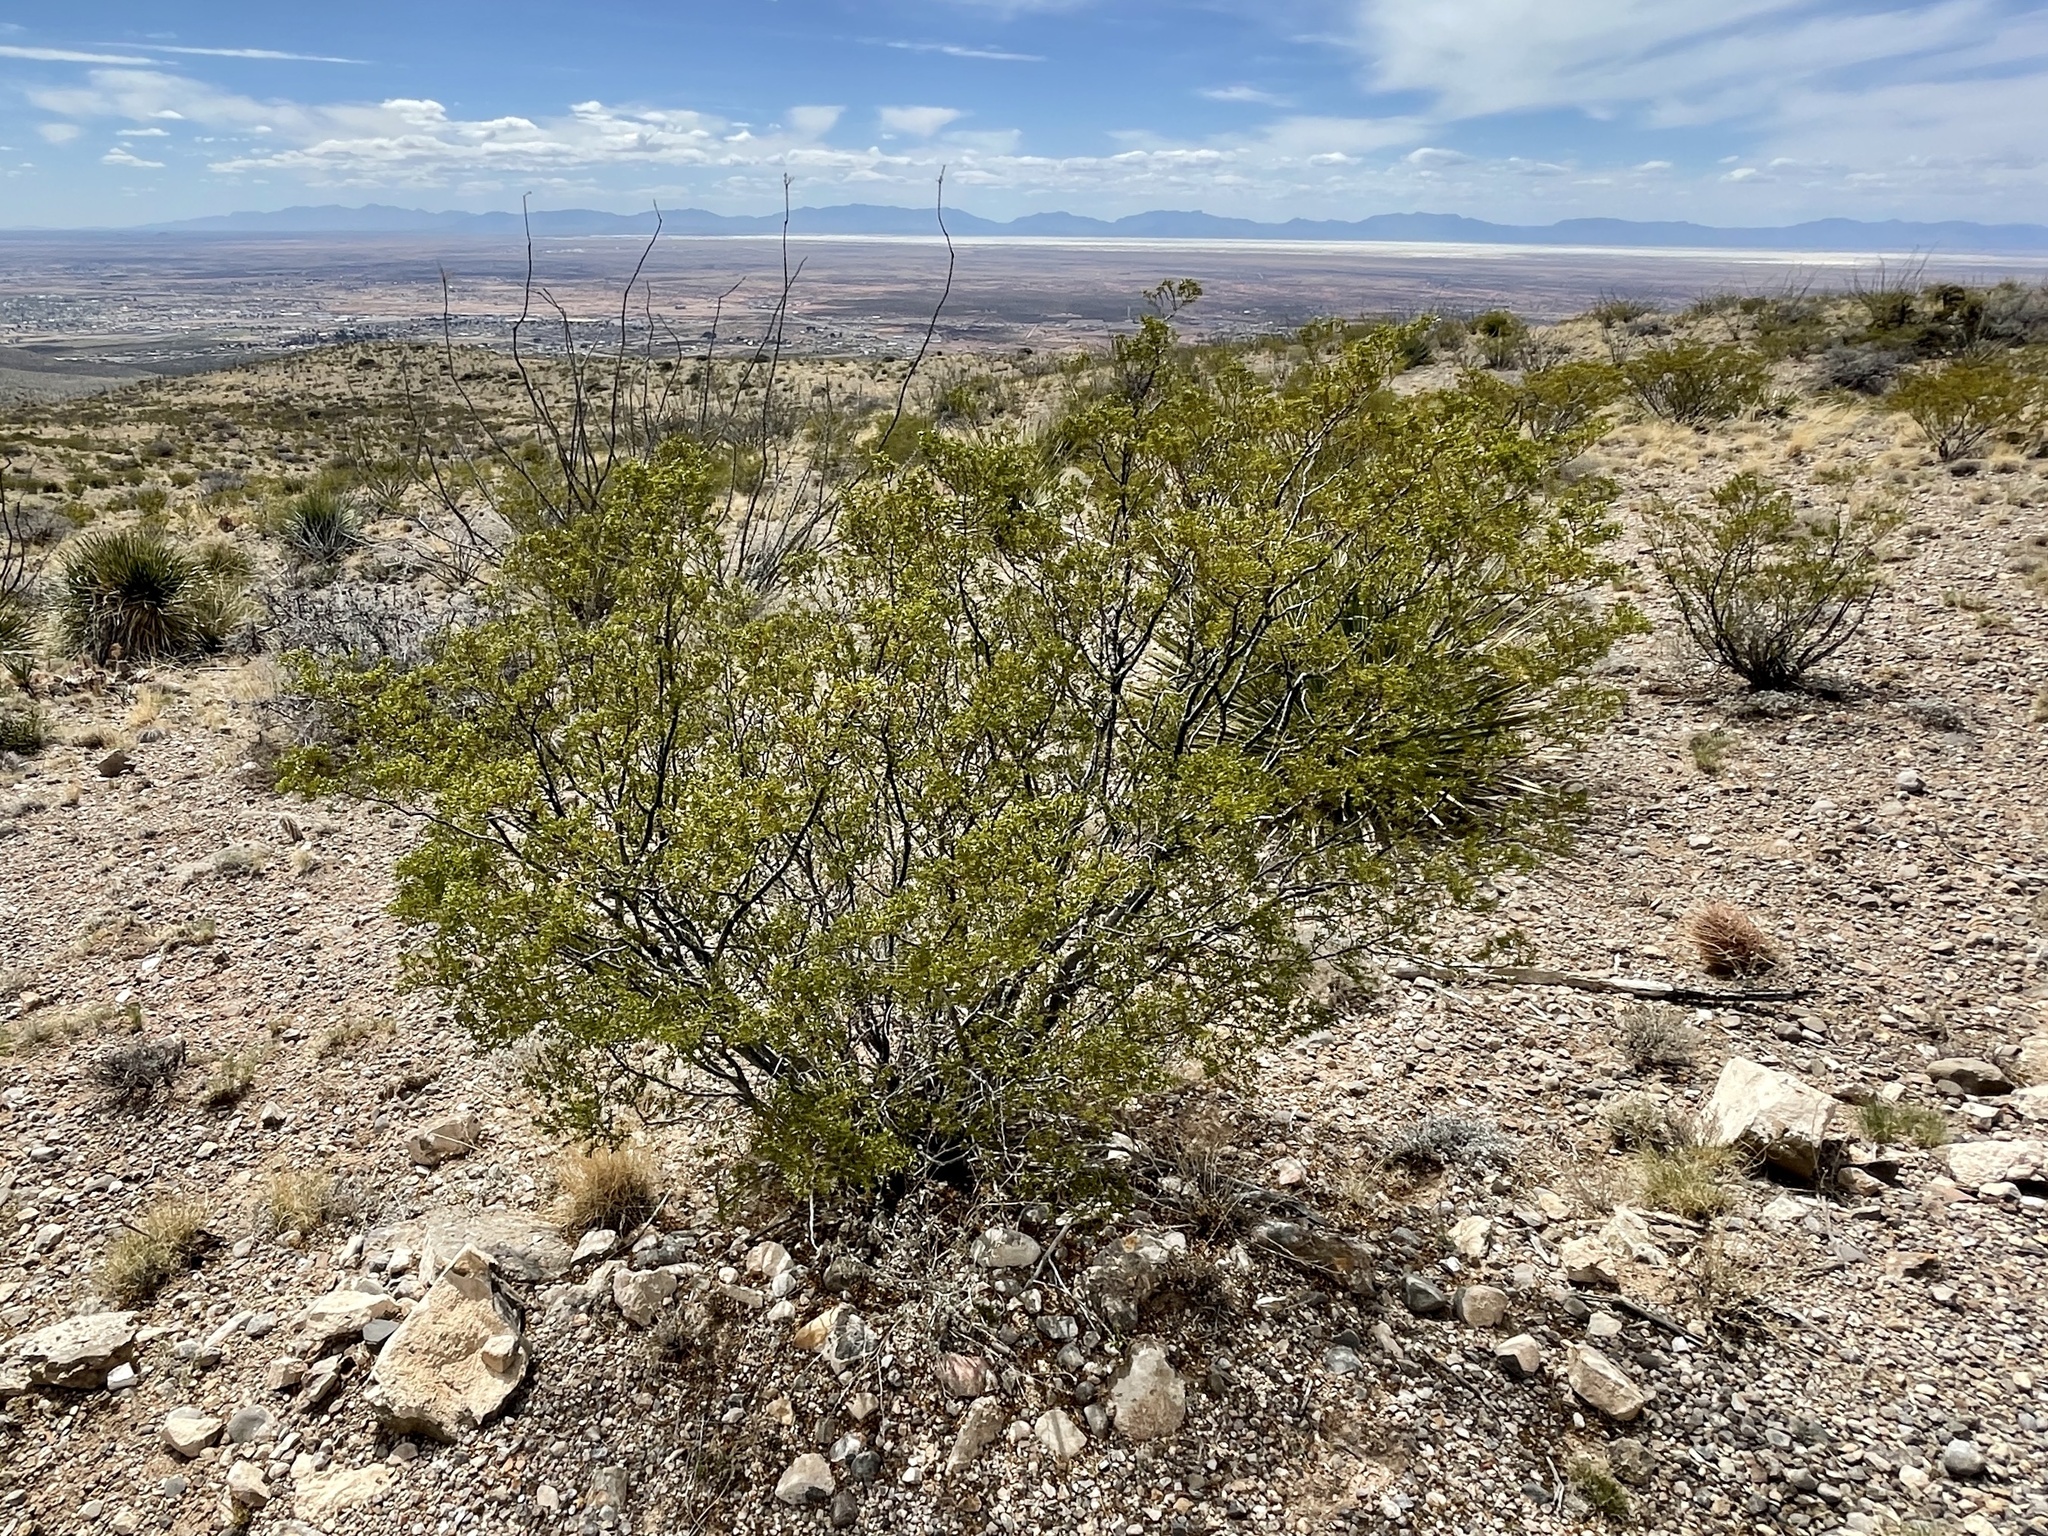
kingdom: Plantae
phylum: Tracheophyta
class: Magnoliopsida
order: Zygophyllales
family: Zygophyllaceae
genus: Larrea
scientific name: Larrea tridentata
